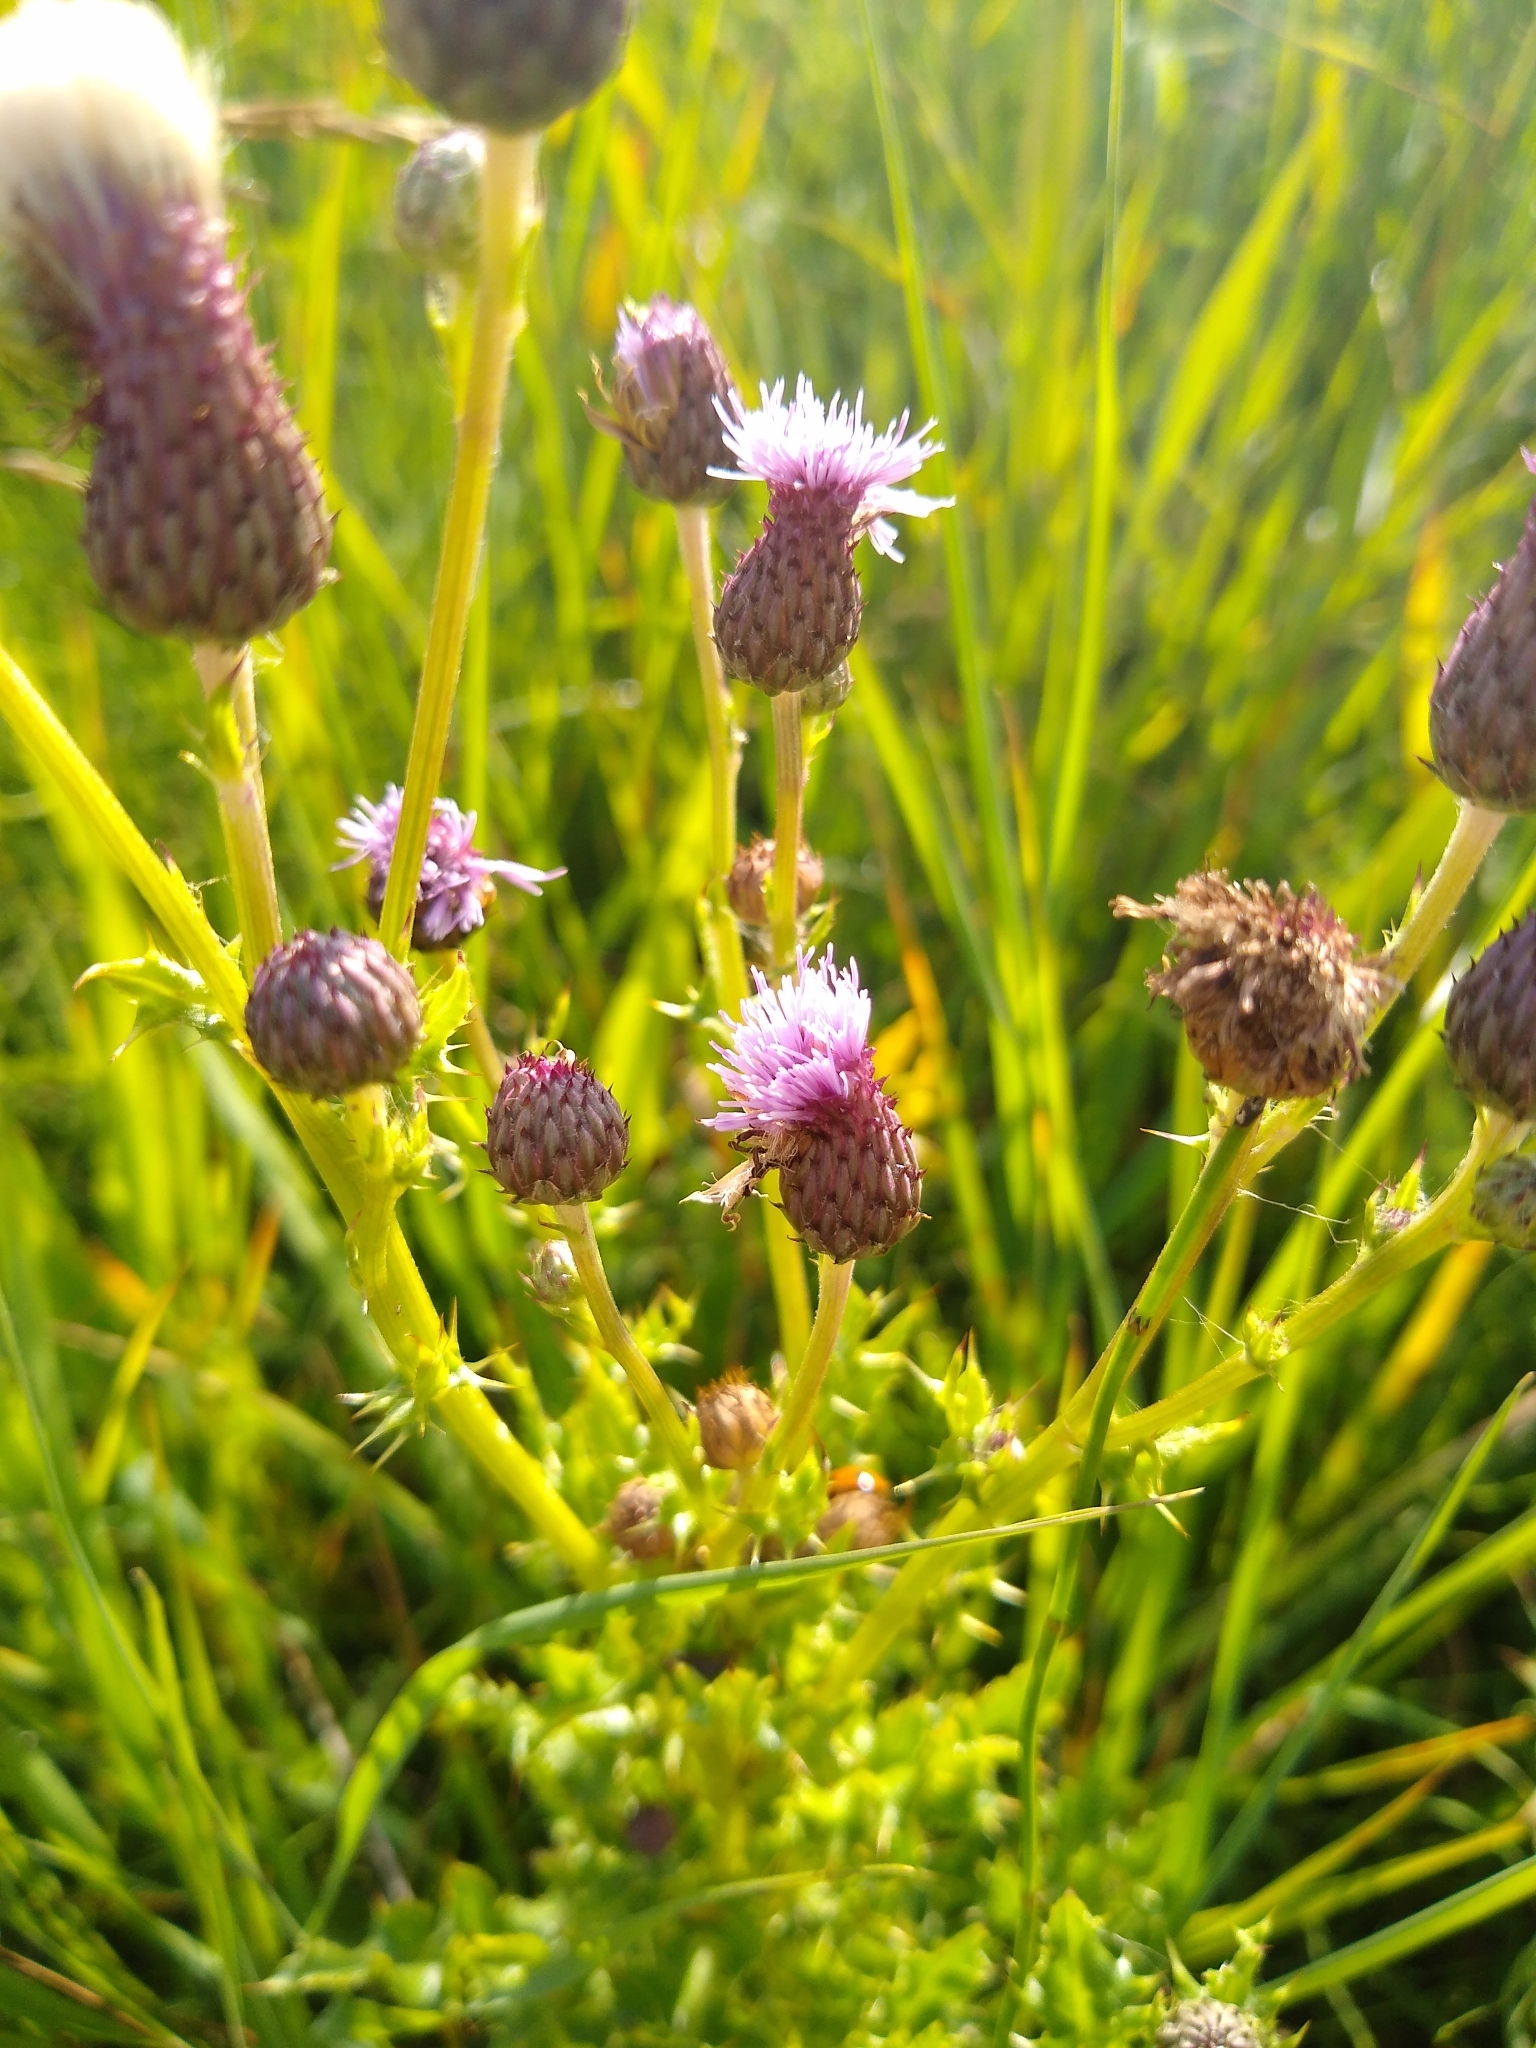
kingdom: Plantae
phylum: Tracheophyta
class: Magnoliopsida
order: Asterales
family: Asteraceae
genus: Cirsium
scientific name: Cirsium arvense
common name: Creeping thistle
